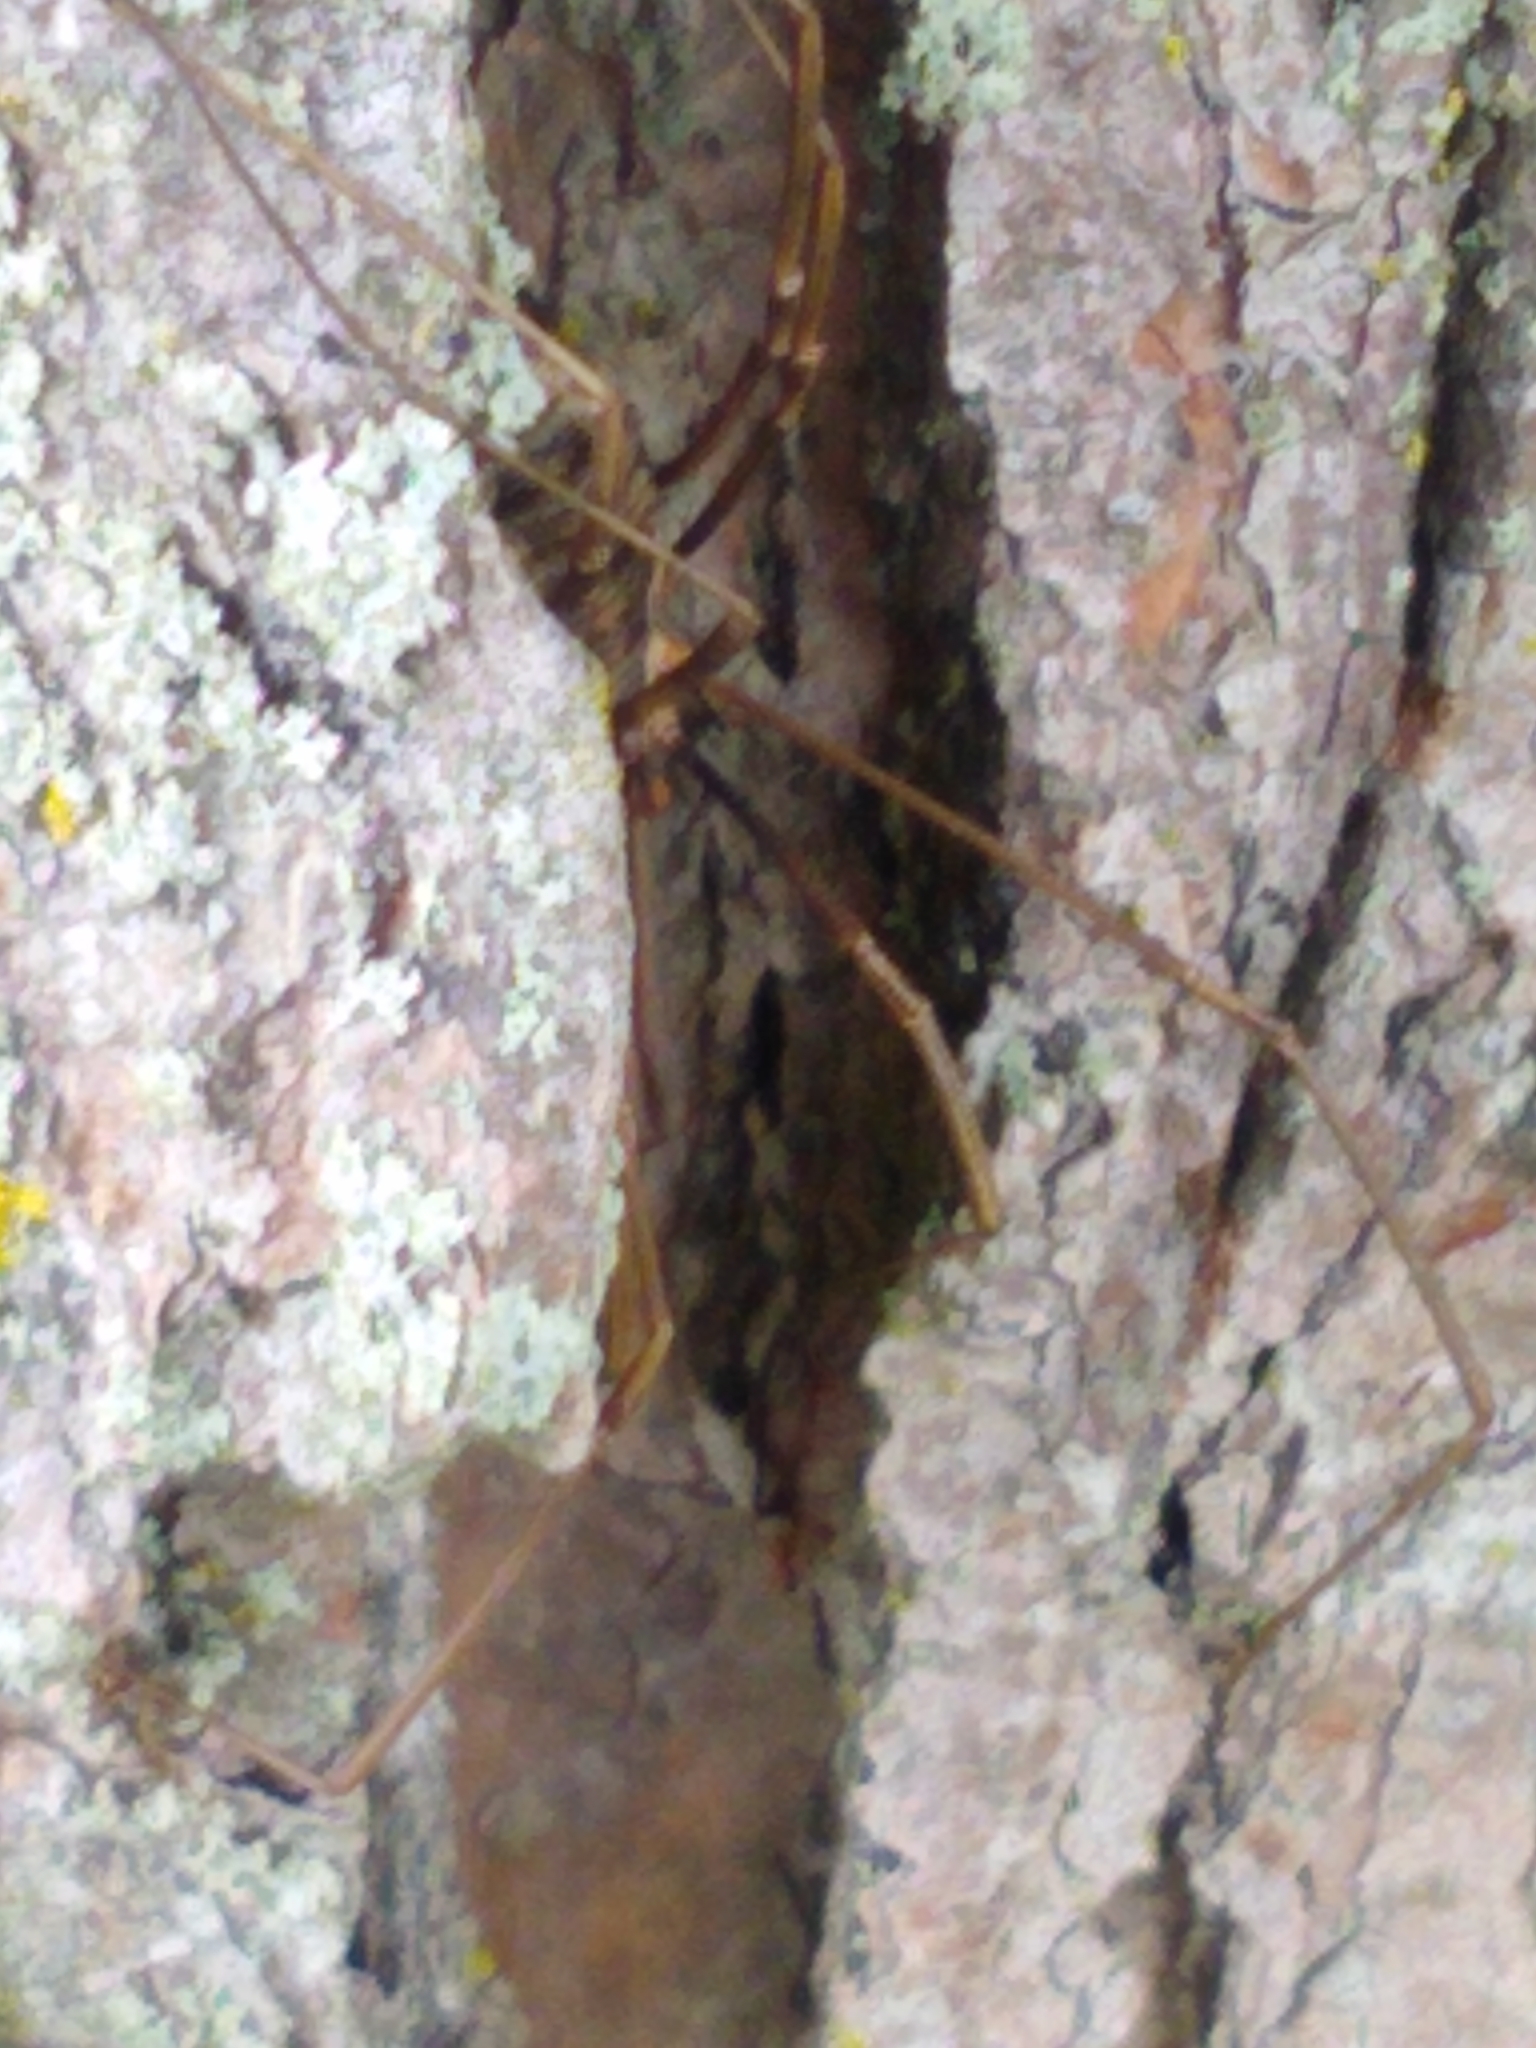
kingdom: Animalia
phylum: Arthropoda
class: Arachnida
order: Opiliones
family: Phalangiidae
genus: Phalangium
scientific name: Phalangium opilio
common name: Daddy longleg
